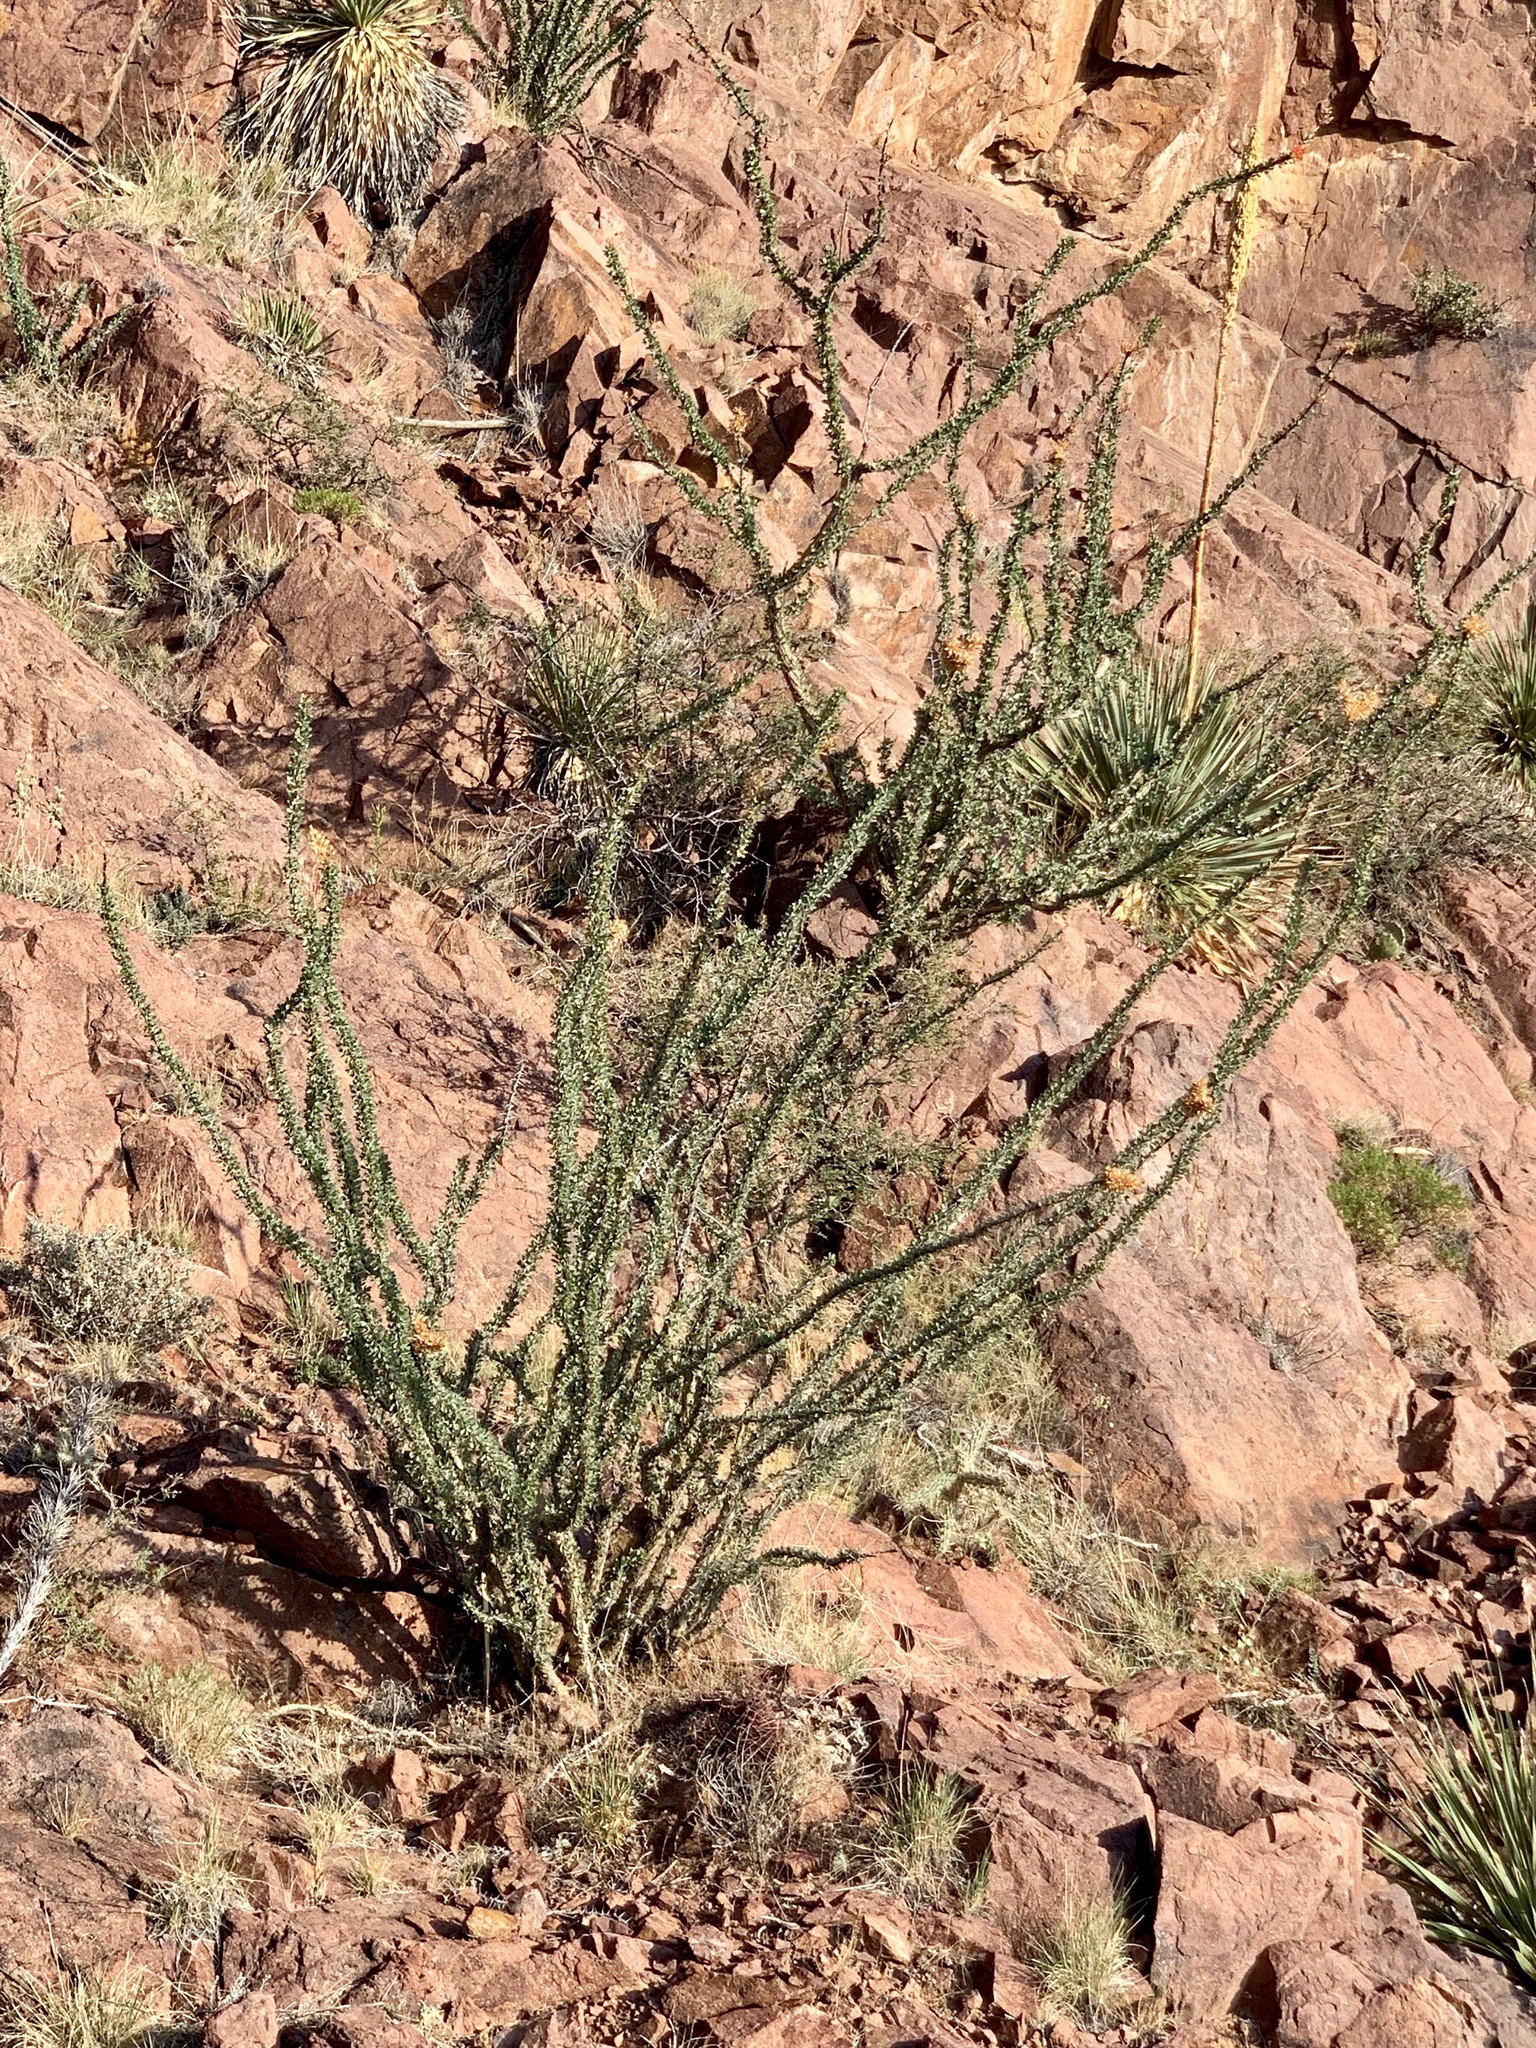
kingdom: Plantae
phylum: Tracheophyta
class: Magnoliopsida
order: Ericales
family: Fouquieriaceae
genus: Fouquieria
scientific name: Fouquieria splendens
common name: Vine-cactus
